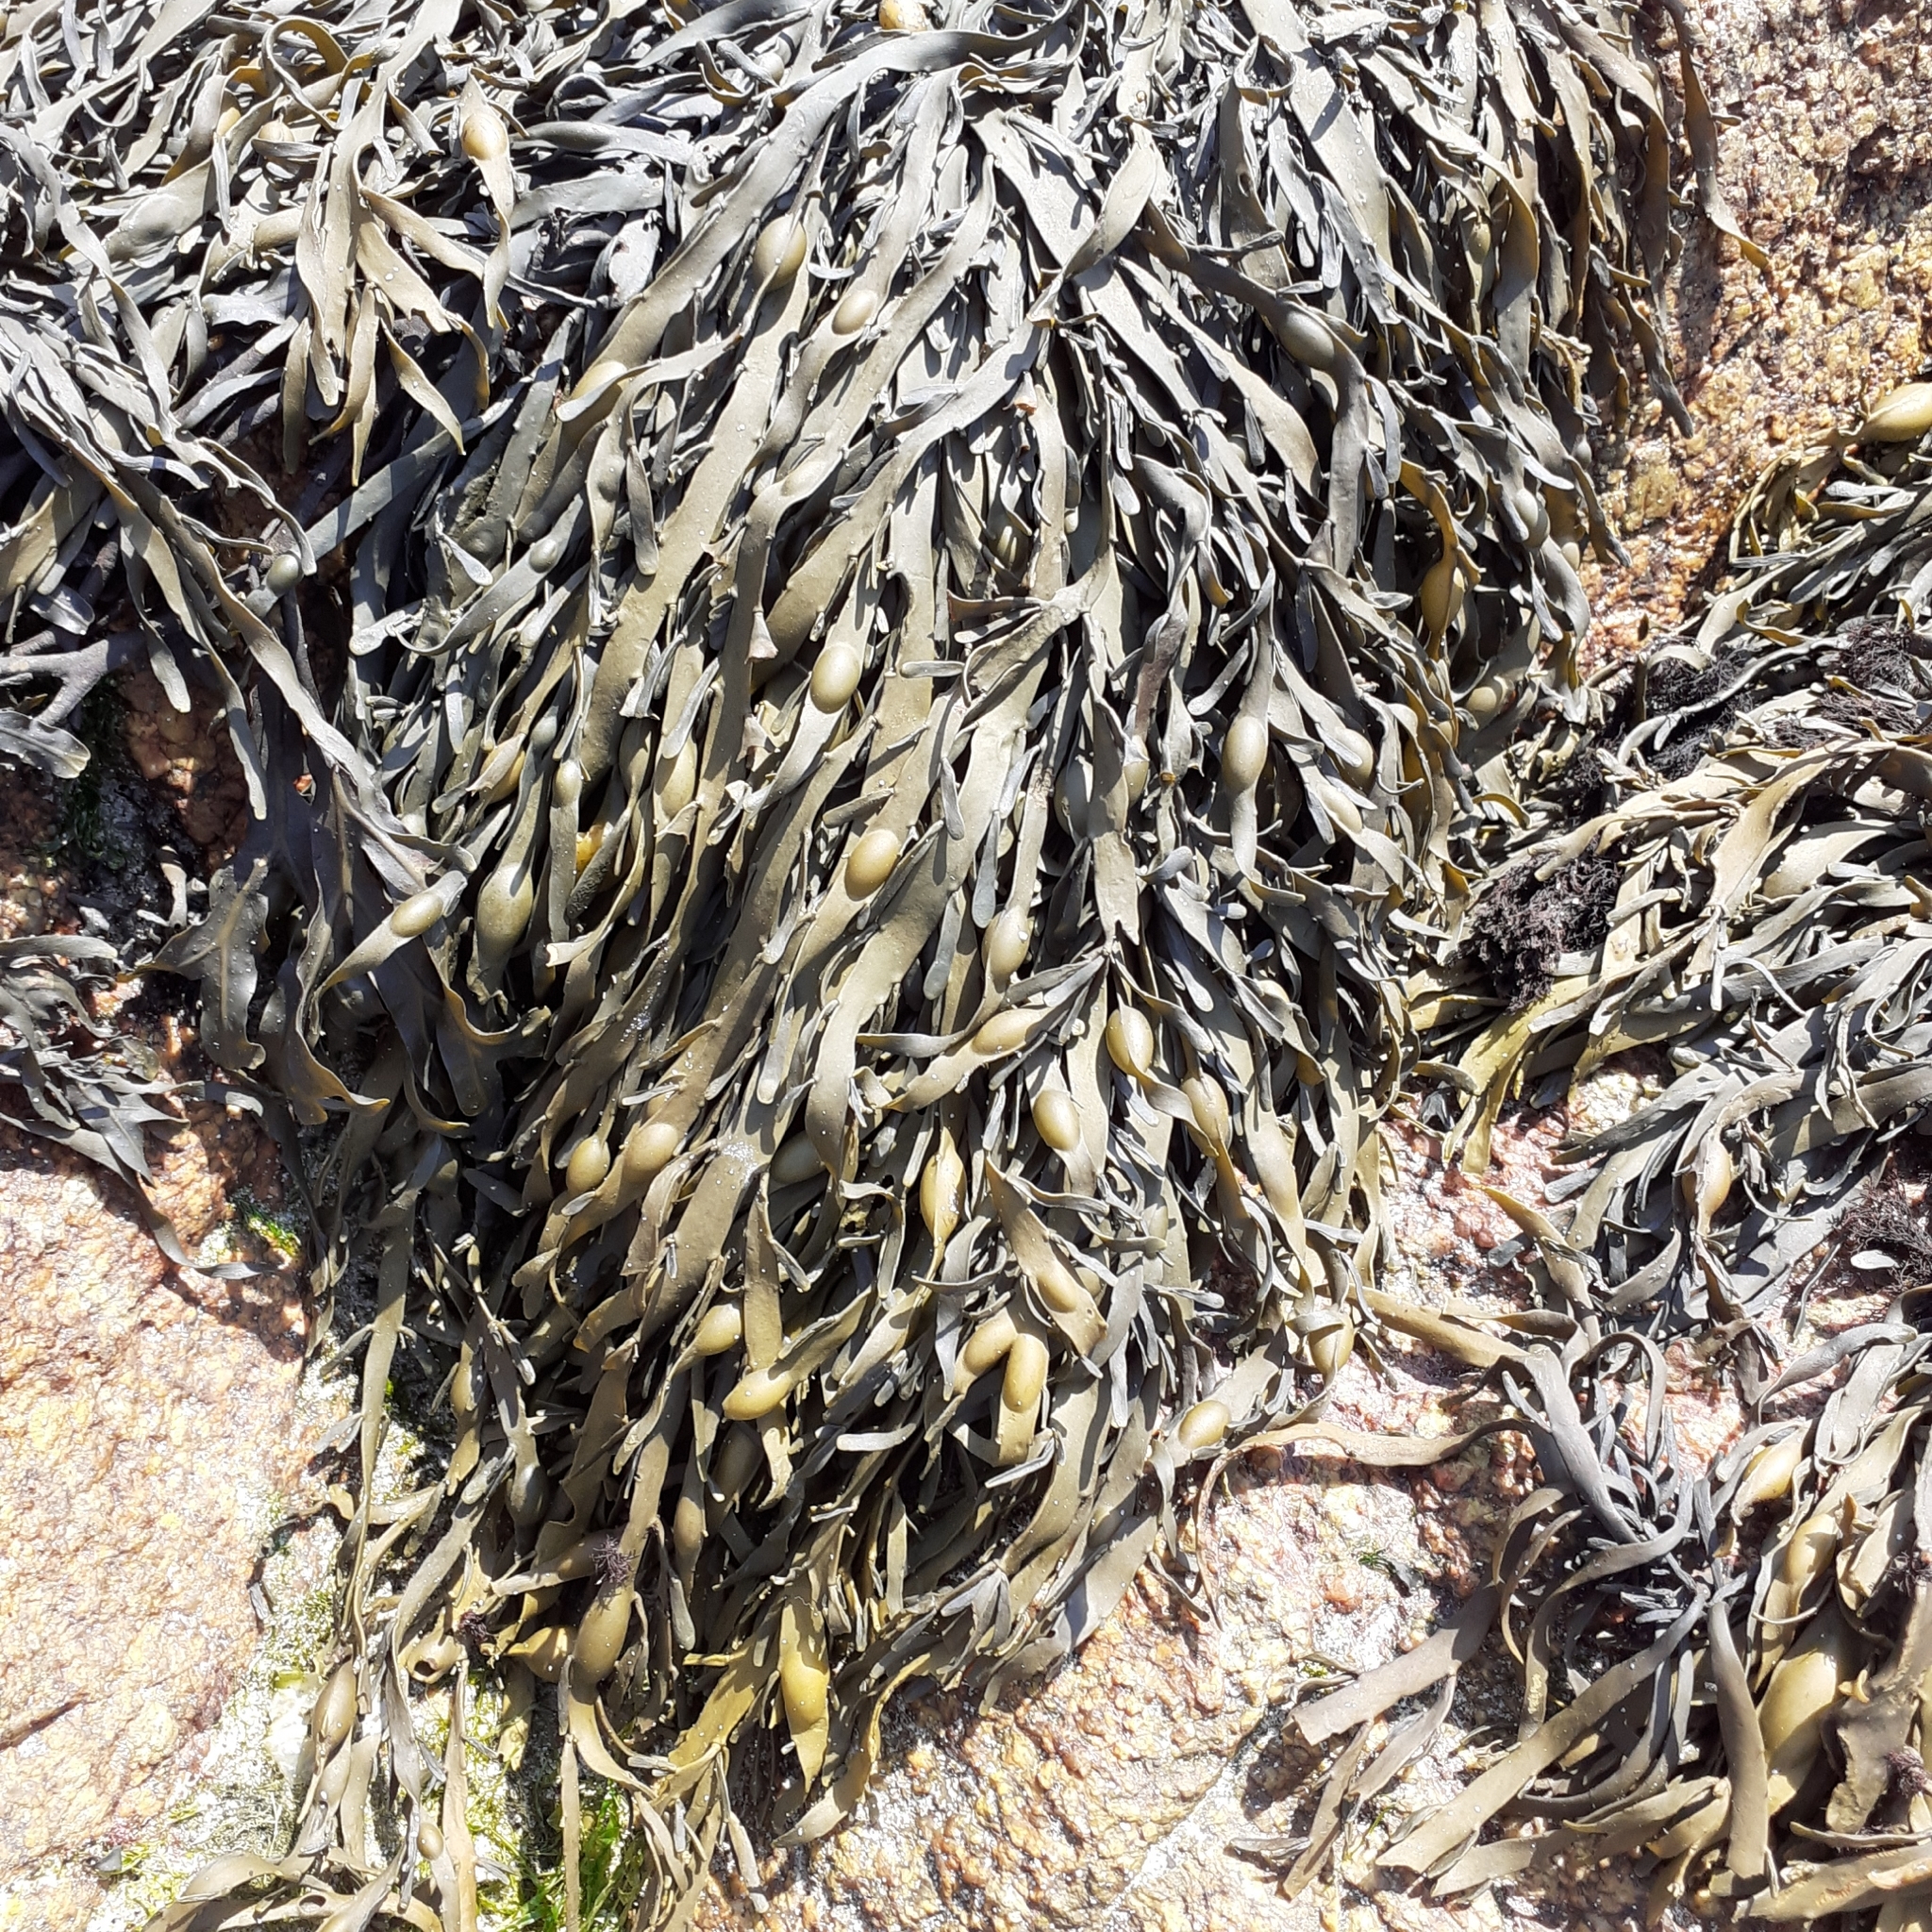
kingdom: Chromista
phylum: Ochrophyta
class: Phaeophyceae
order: Fucales
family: Fucaceae
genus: Ascophyllum
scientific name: Ascophyllum nodosum
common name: Knotted wrack
